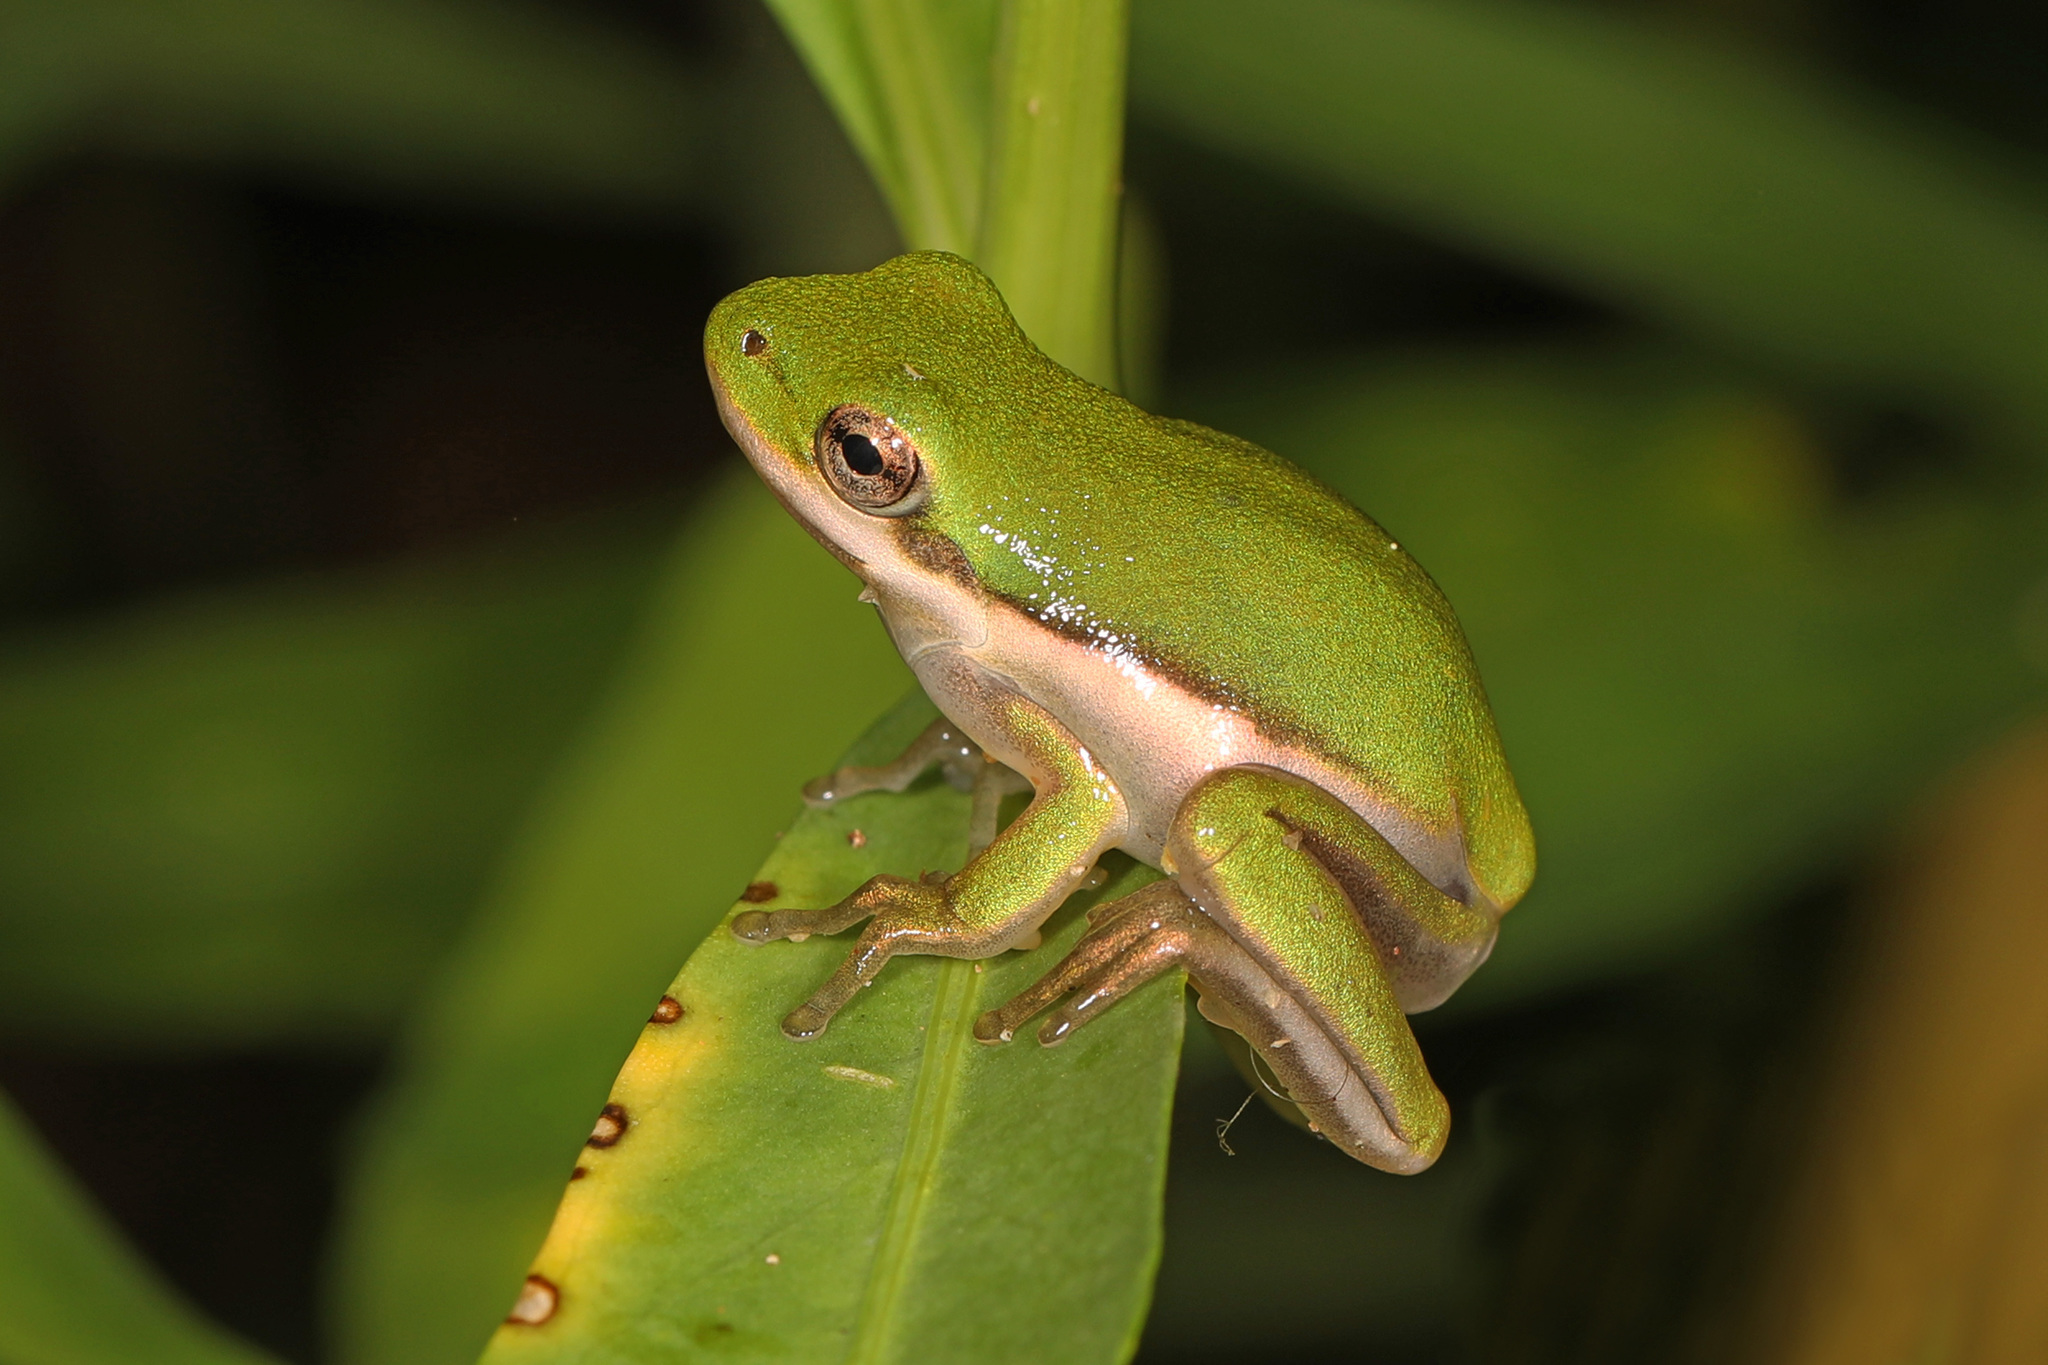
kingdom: Animalia
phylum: Chordata
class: Amphibia
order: Anura
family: Hylidae
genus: Dryophytes
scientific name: Dryophytes cinereus
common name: Green treefrog
